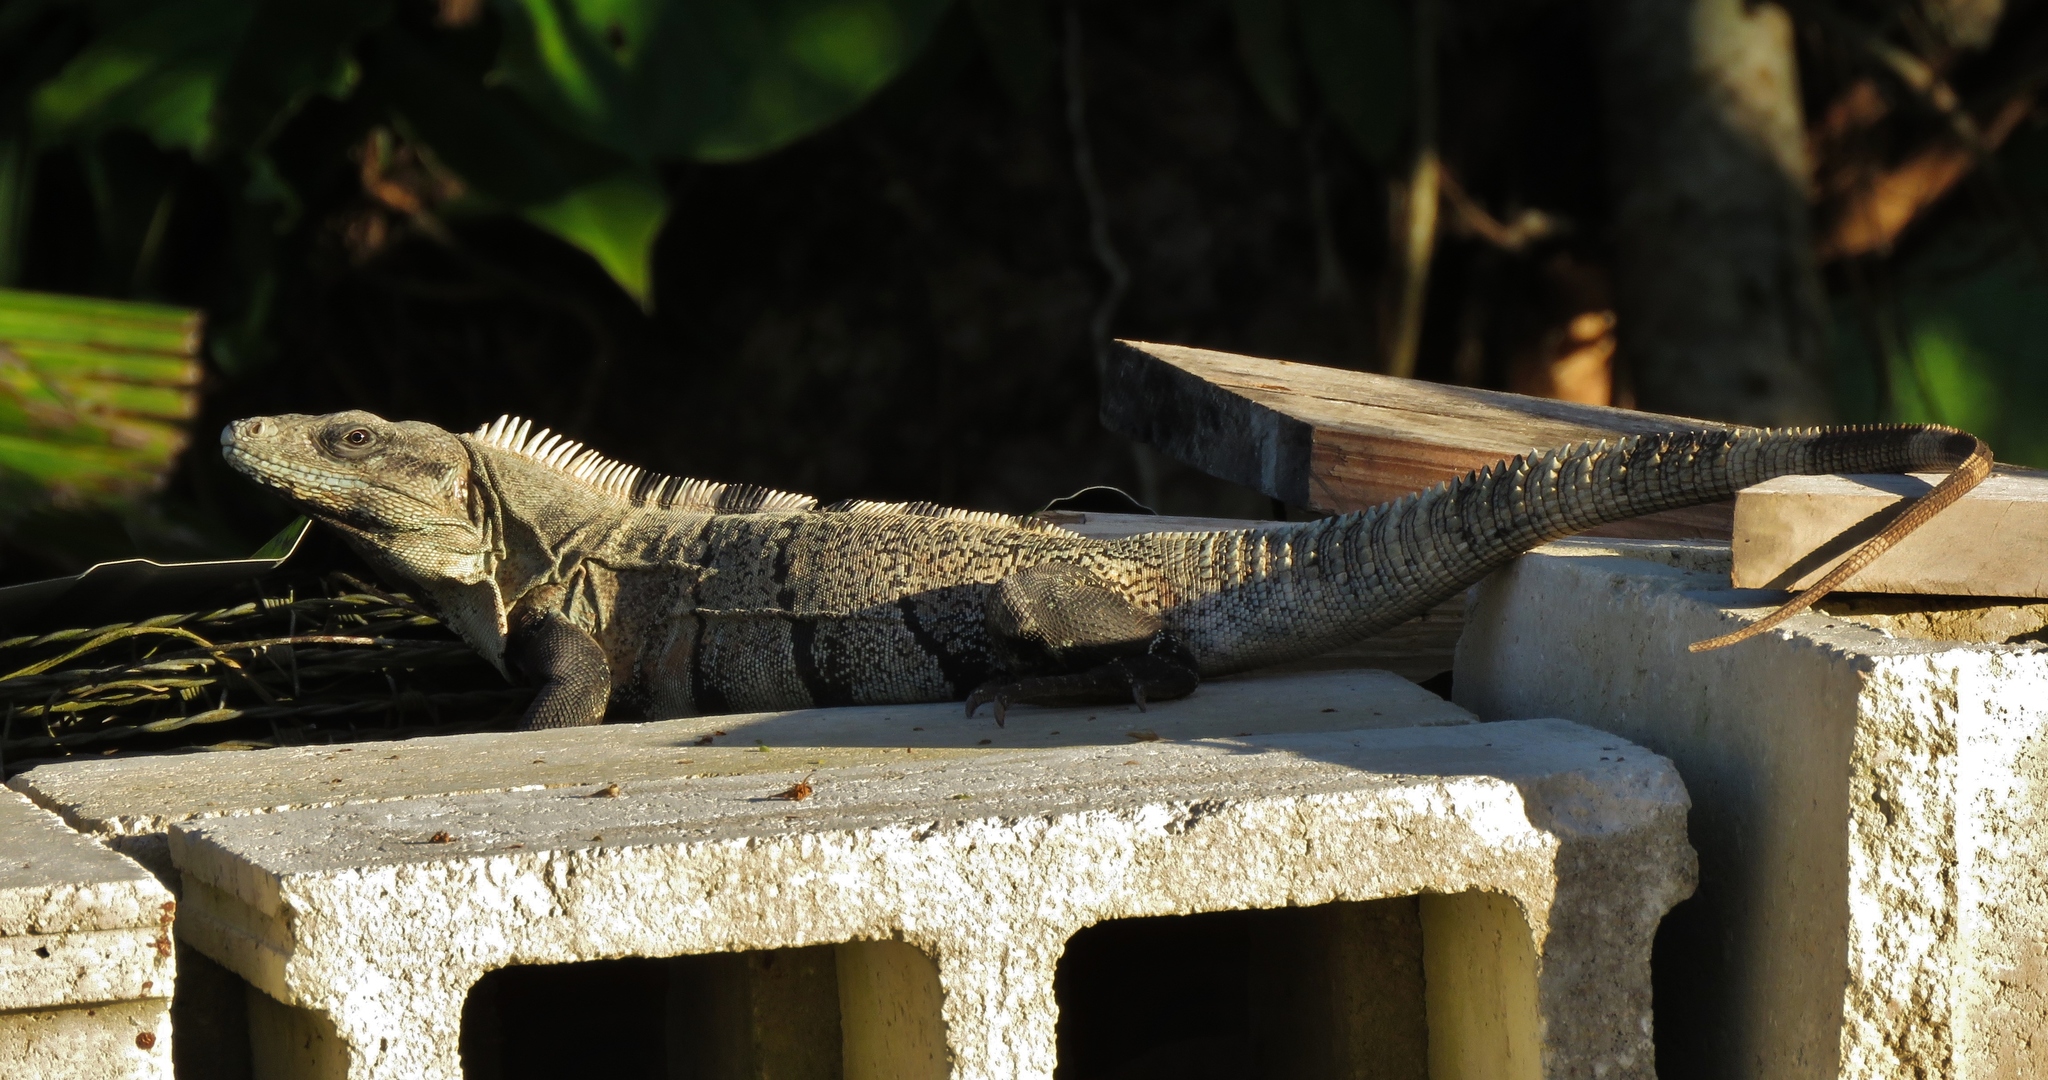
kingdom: Animalia
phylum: Chordata
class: Squamata
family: Iguanidae
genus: Ctenosaura
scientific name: Ctenosaura similis
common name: Black spiny-tailed iguana
